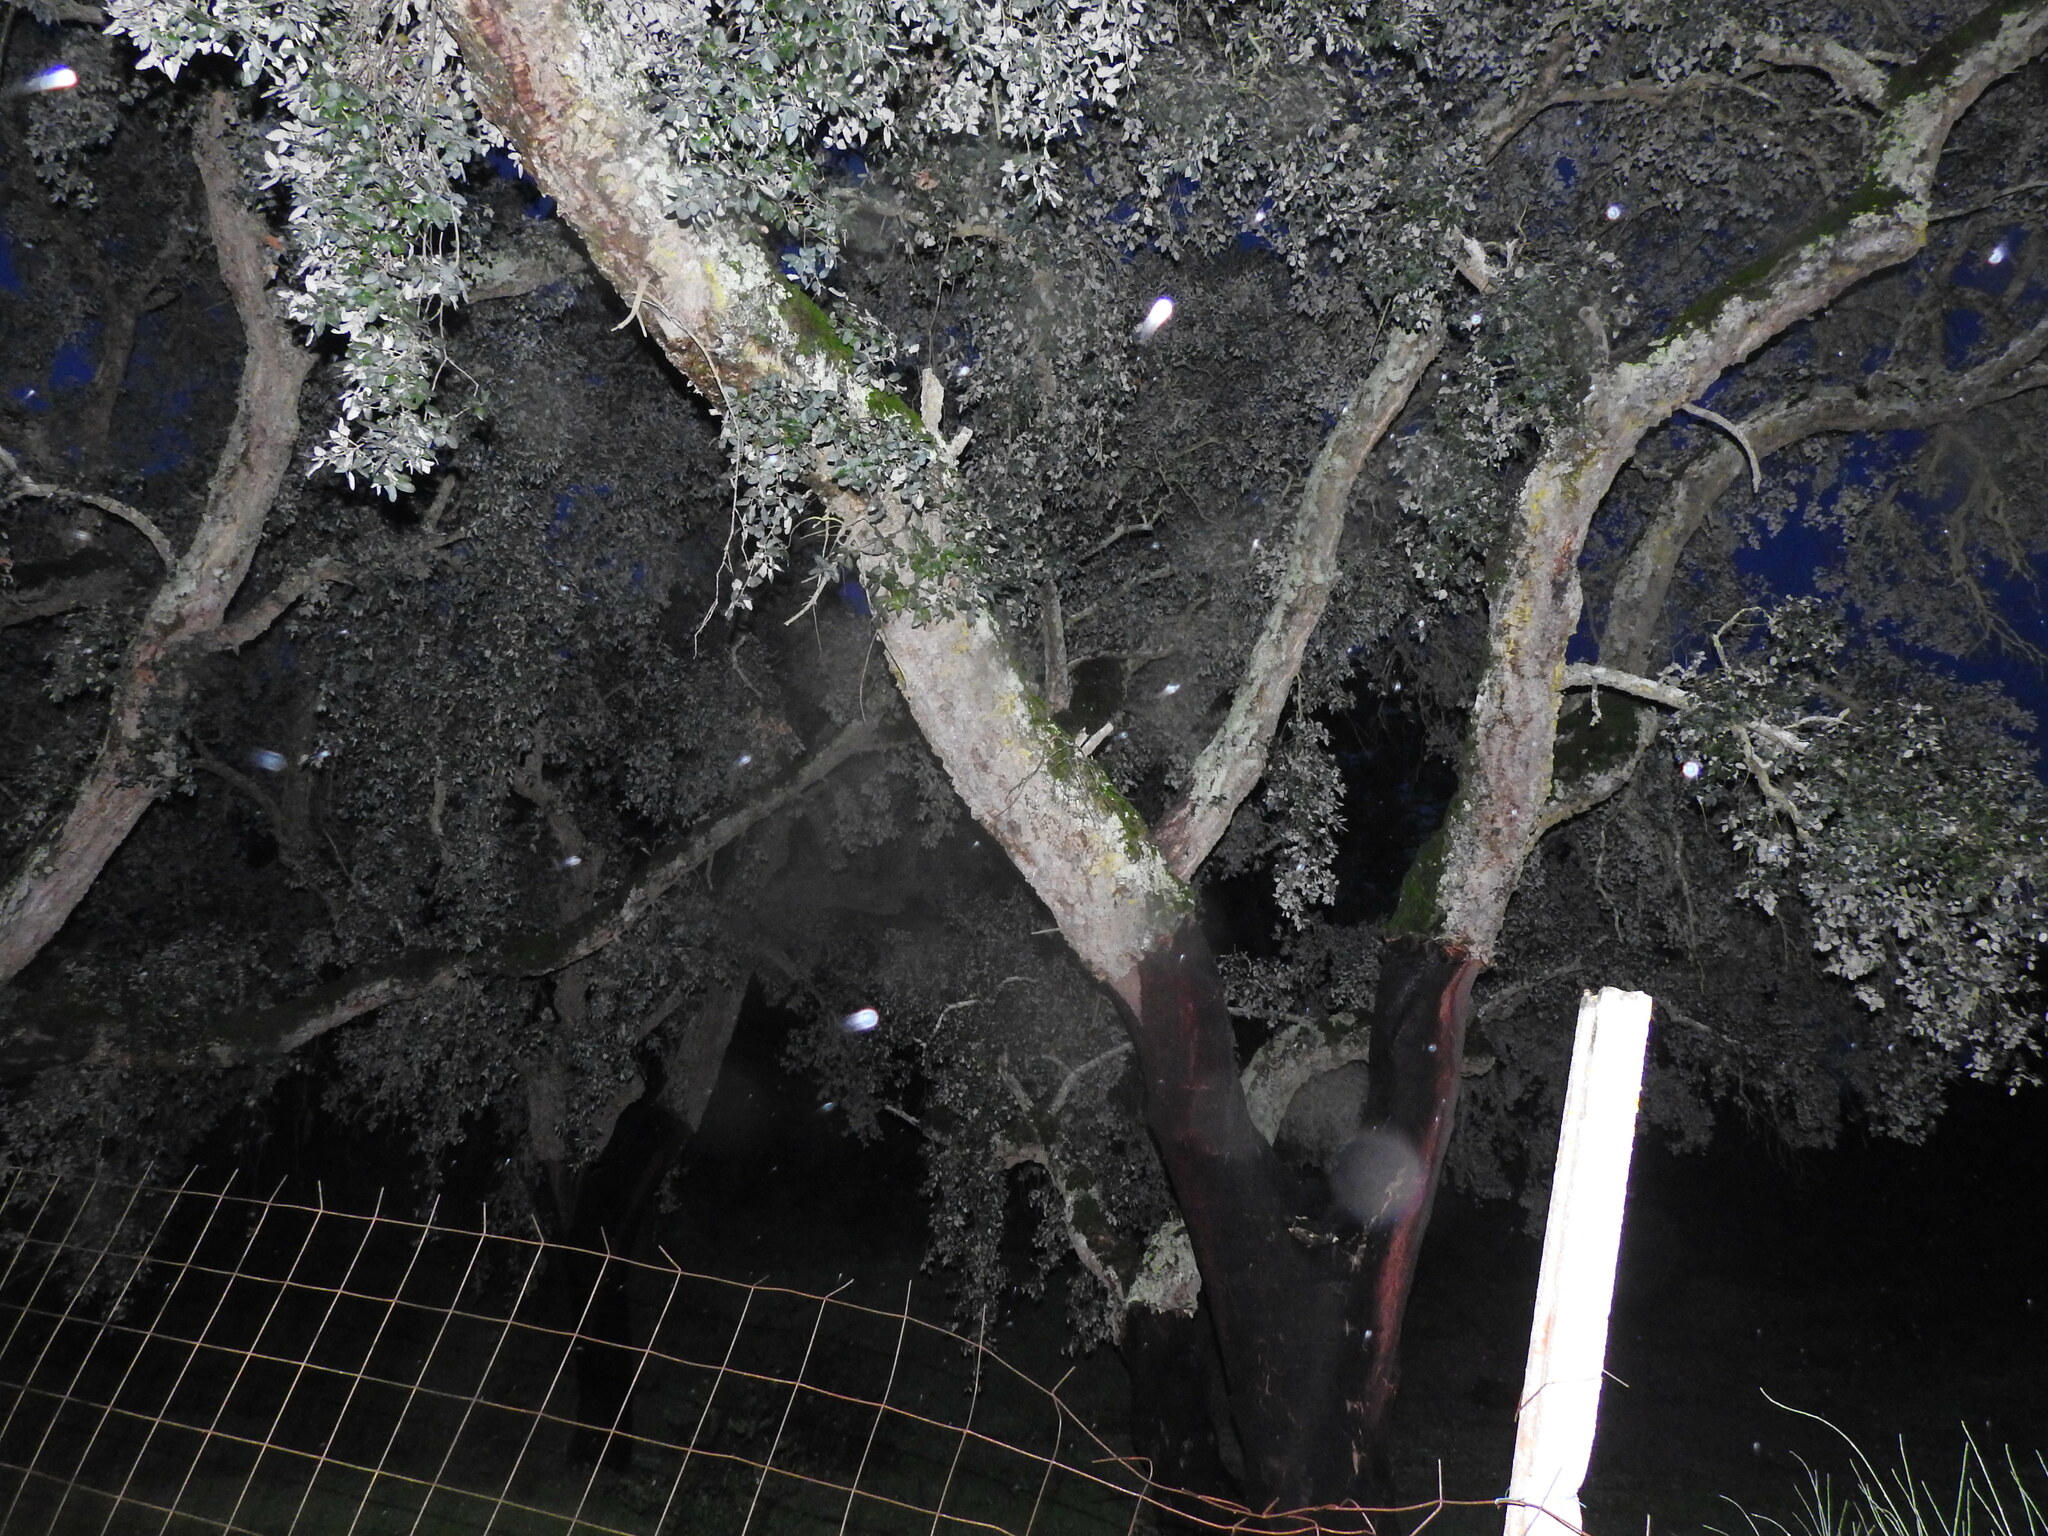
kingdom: Plantae
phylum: Tracheophyta
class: Magnoliopsida
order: Fagales
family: Fagaceae
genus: Quercus
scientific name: Quercus suber
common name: Cork oak
